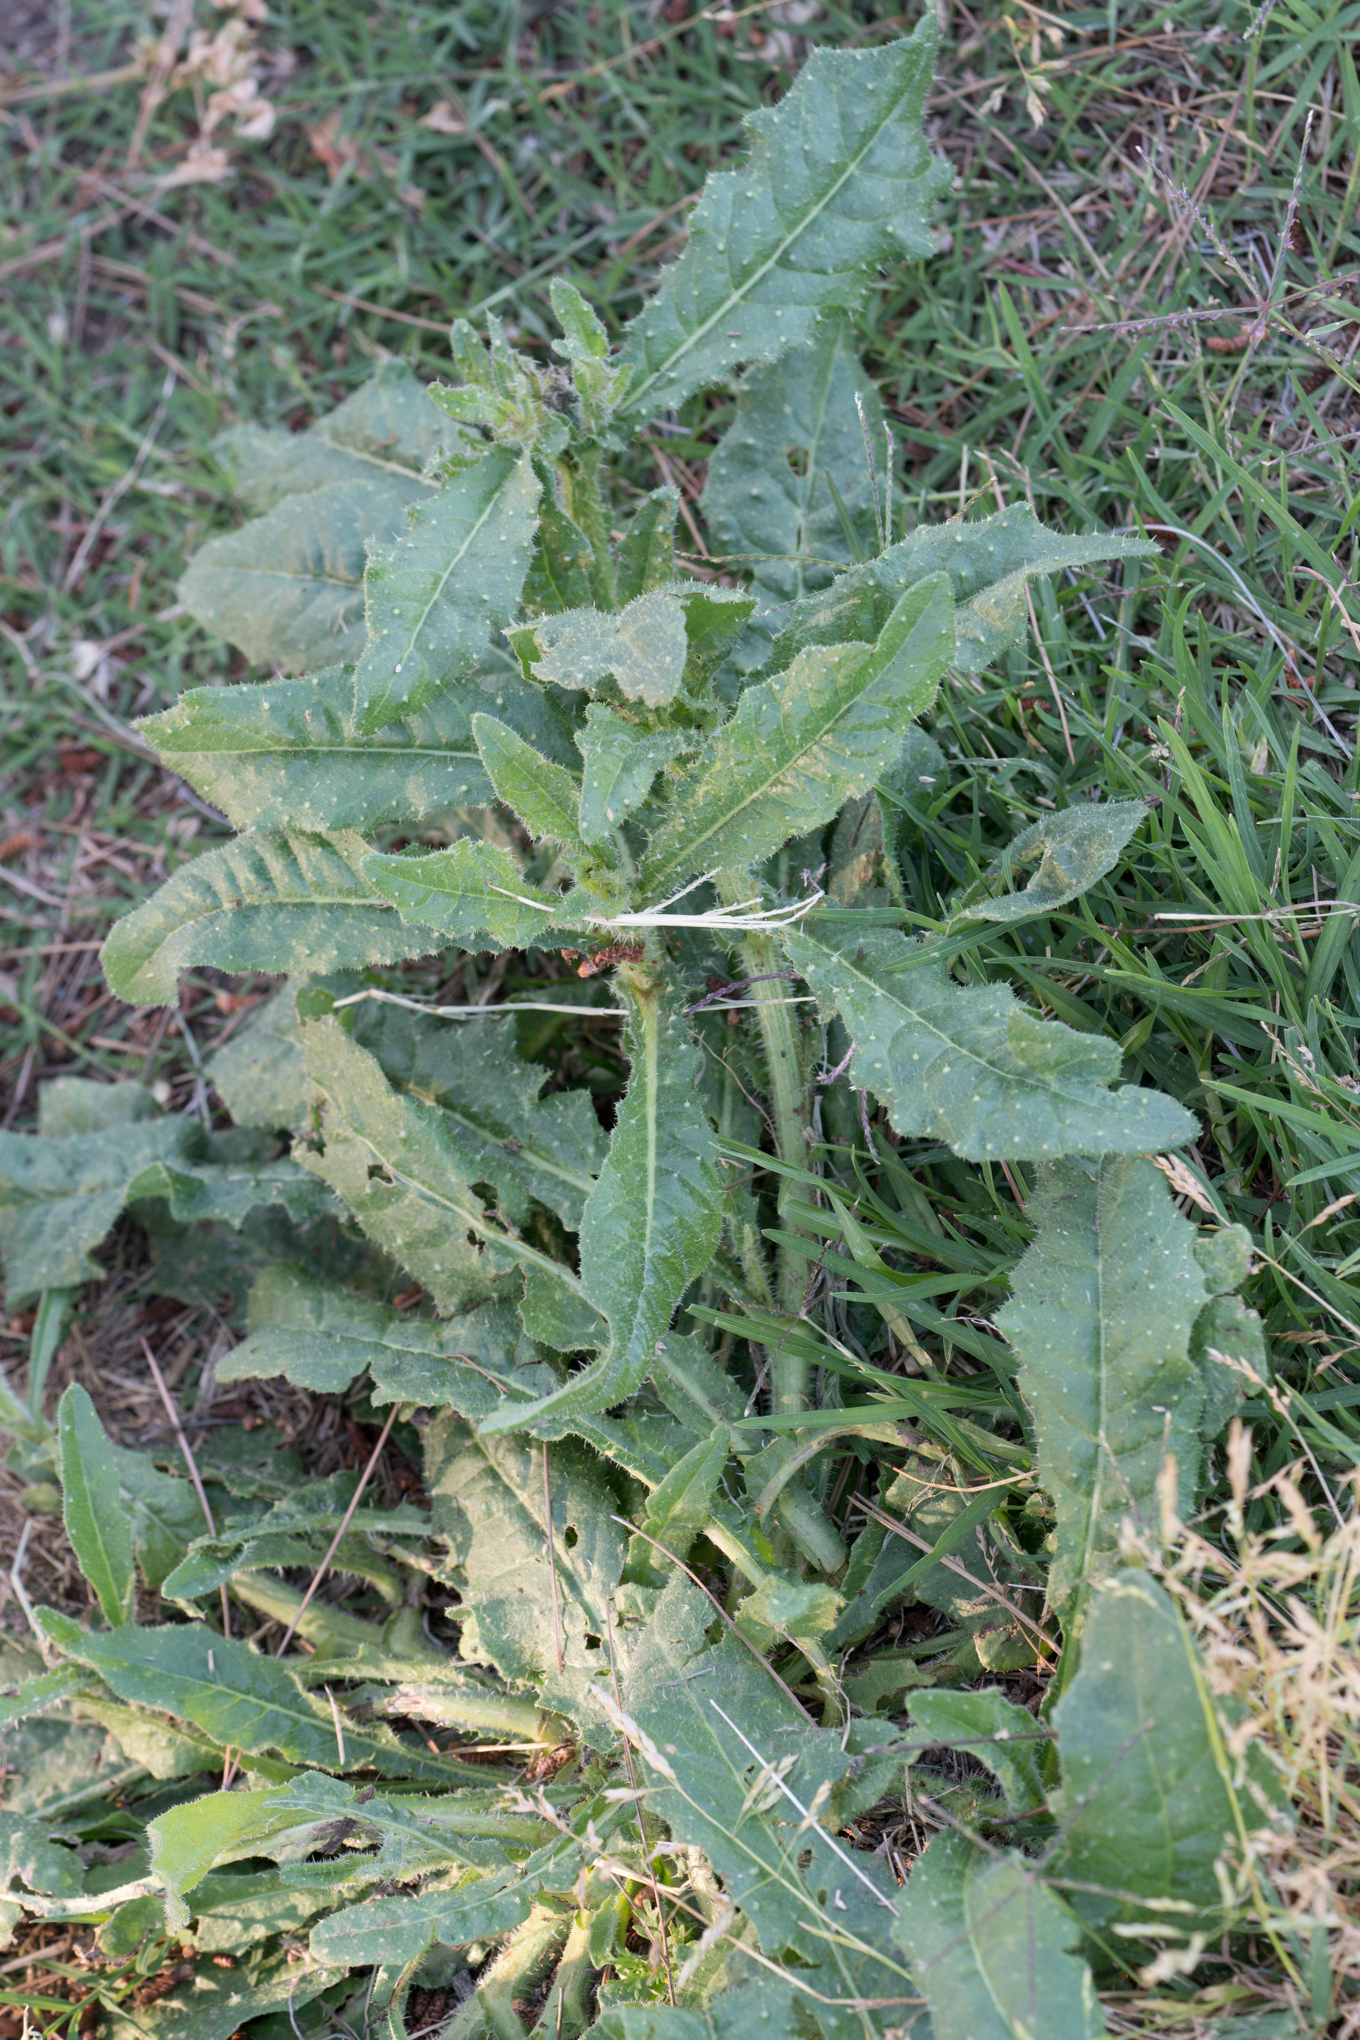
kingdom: Plantae
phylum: Tracheophyta
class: Magnoliopsida
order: Asterales
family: Asteraceae
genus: Helminthotheca
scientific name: Helminthotheca echioides
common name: Ox-tongue
